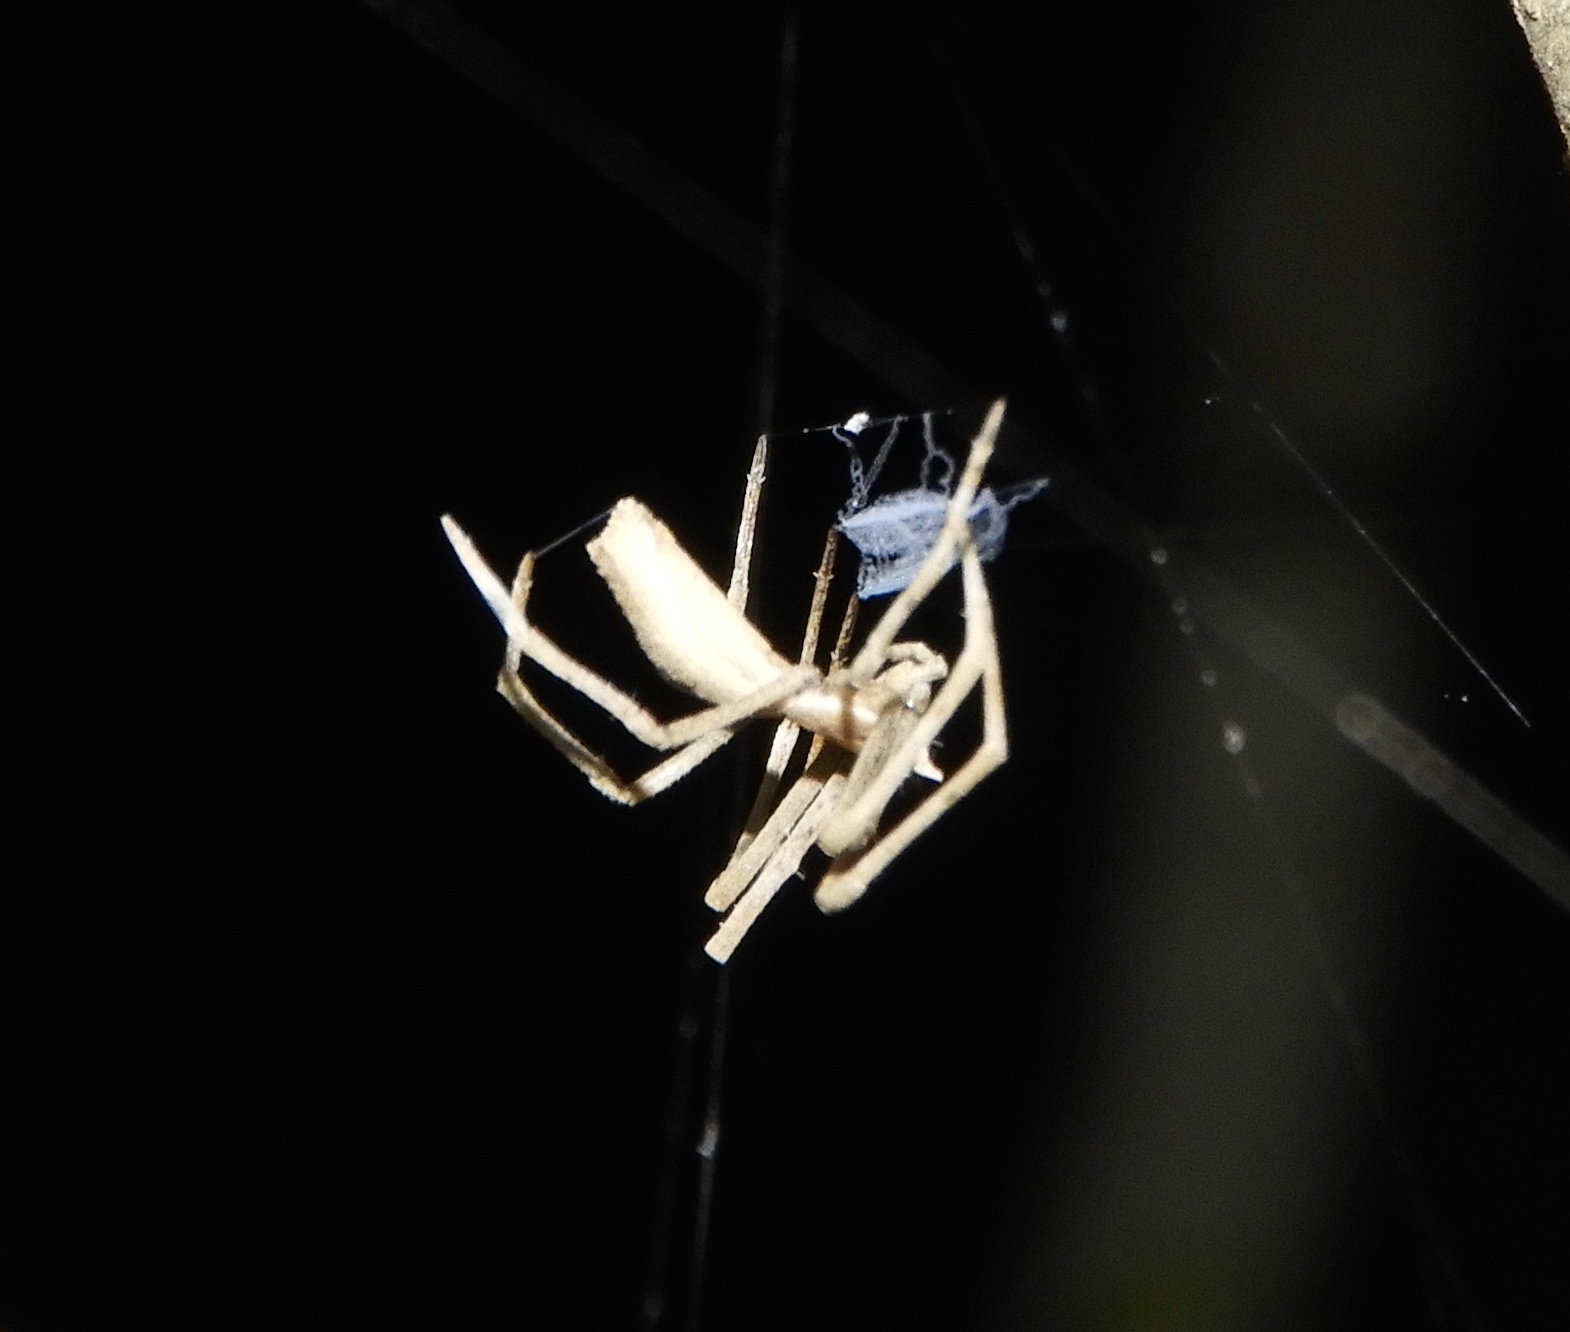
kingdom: Animalia
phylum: Arthropoda
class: Arachnida
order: Araneae
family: Deinopidae
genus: Deinopis
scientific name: Deinopis aurita
